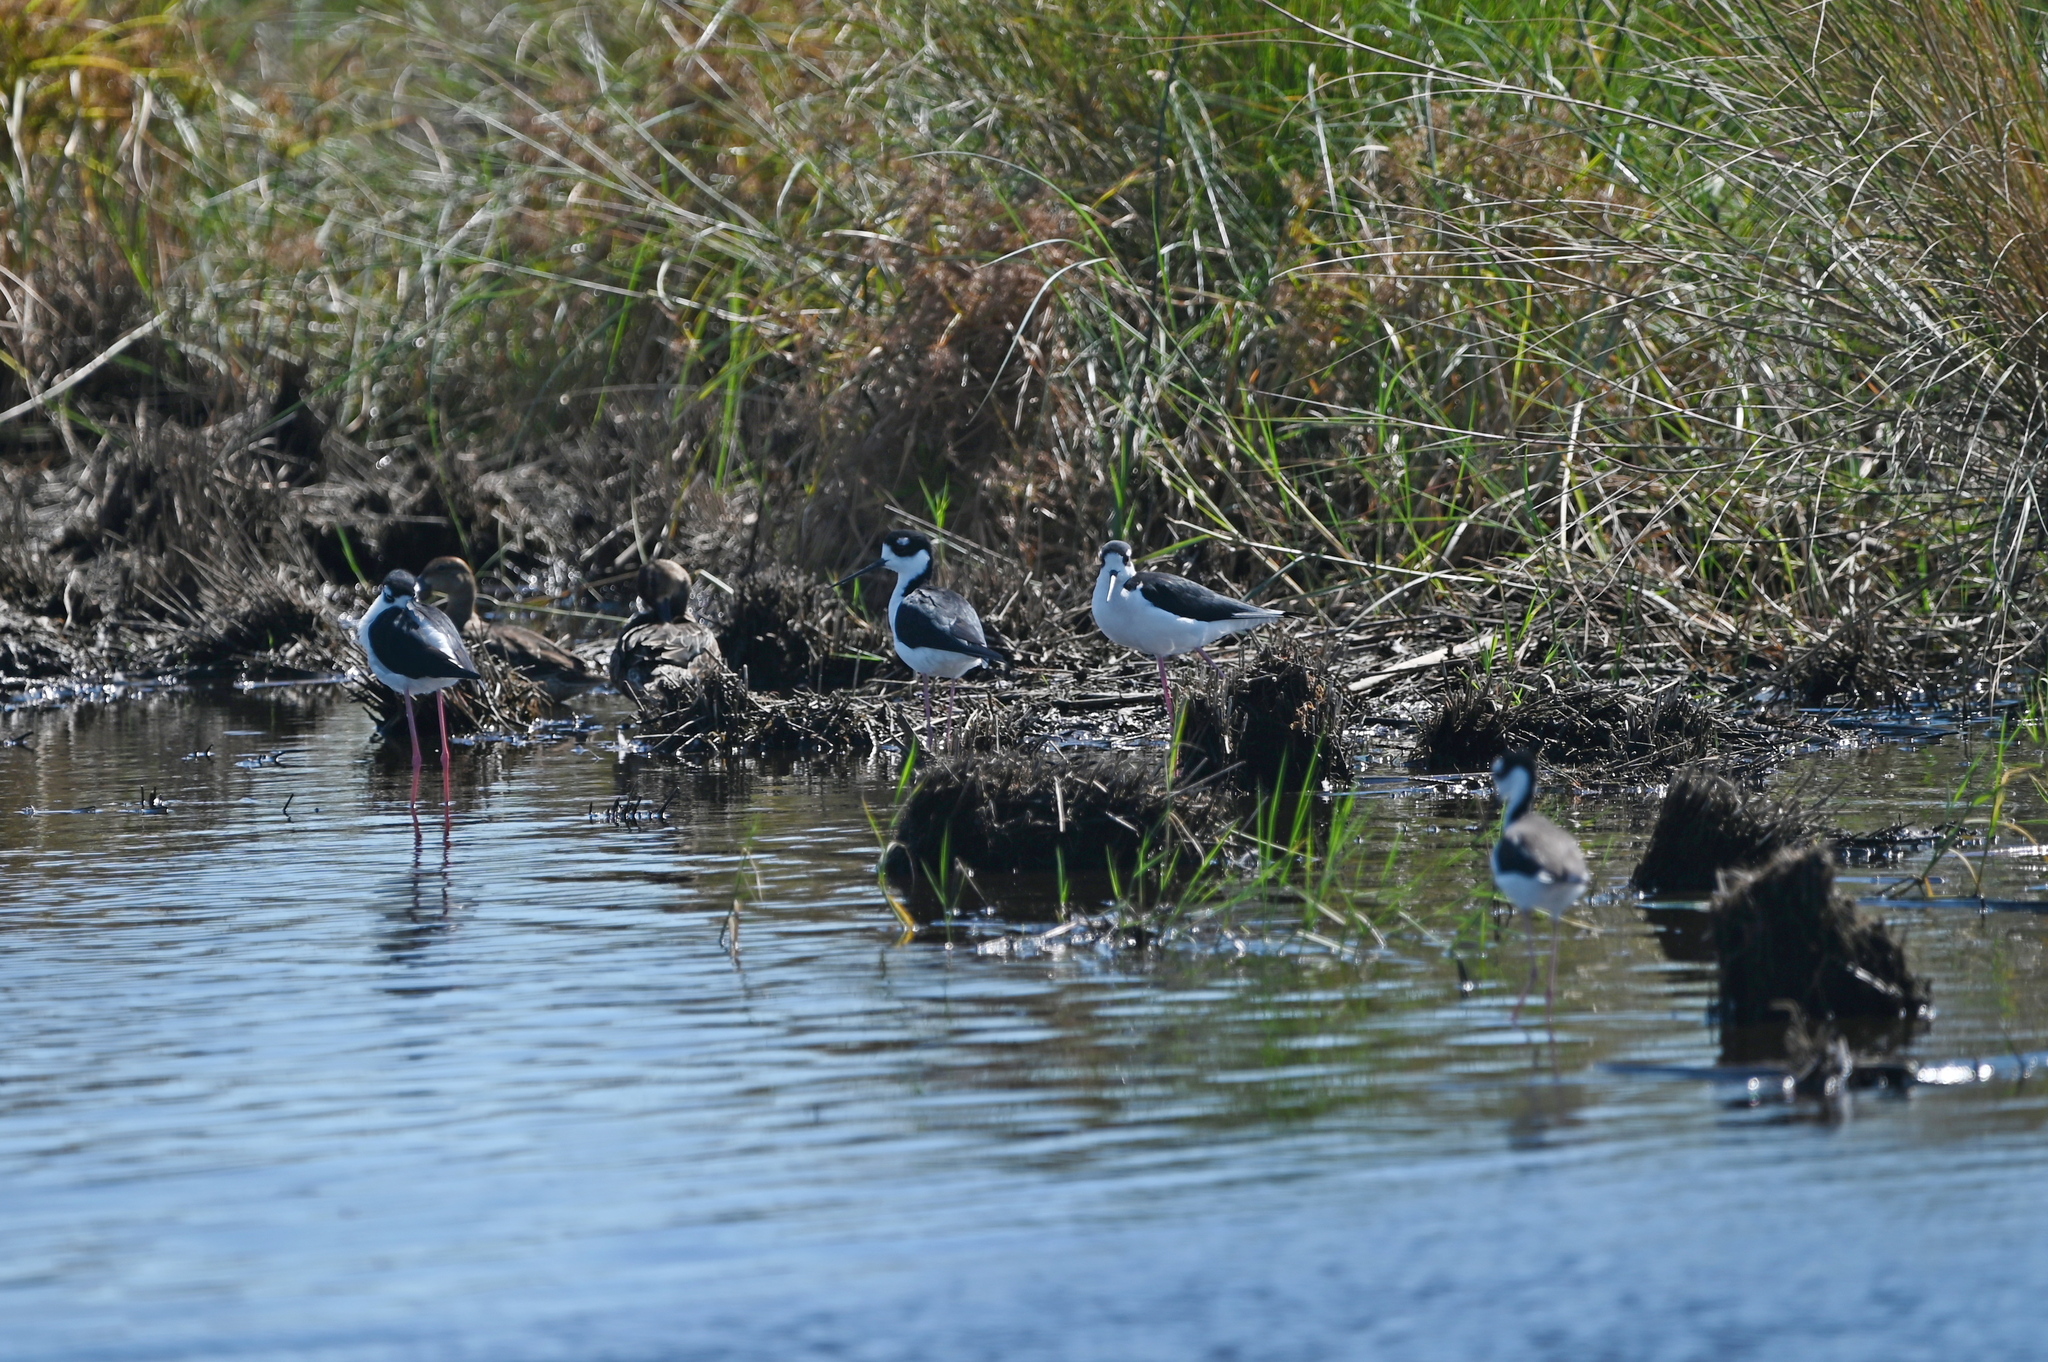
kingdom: Animalia
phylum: Chordata
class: Aves
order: Charadriiformes
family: Recurvirostridae
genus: Himantopus
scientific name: Himantopus mexicanus
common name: Black-necked stilt
